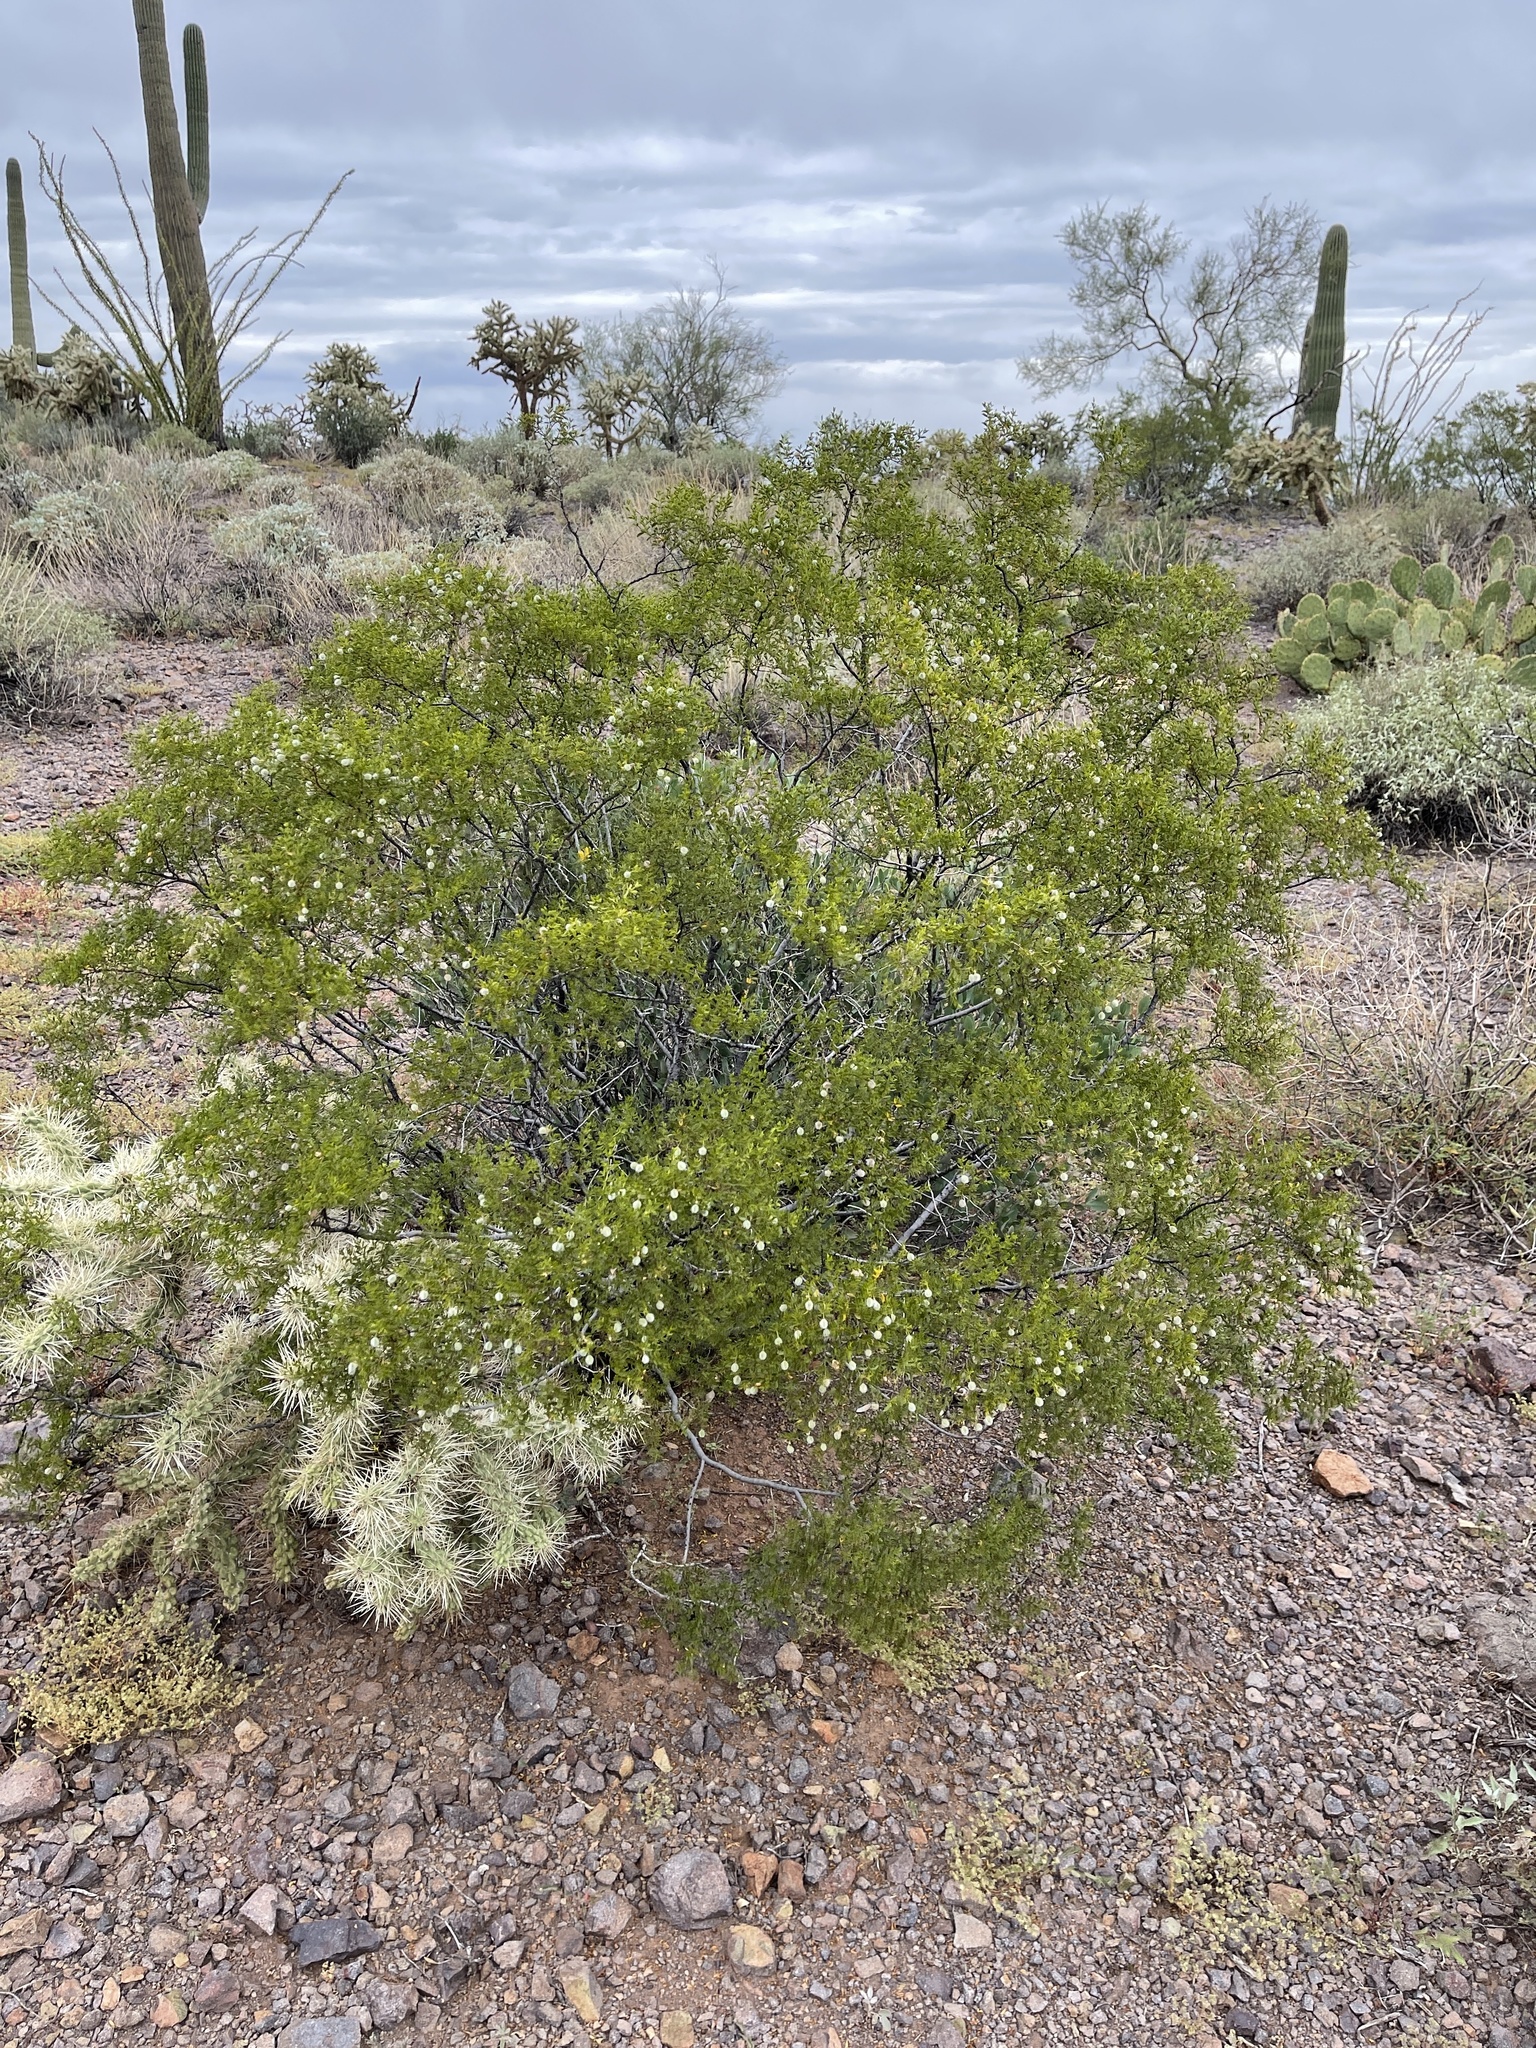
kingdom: Plantae
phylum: Tracheophyta
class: Magnoliopsida
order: Zygophyllales
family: Zygophyllaceae
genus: Larrea
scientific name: Larrea tridentata
